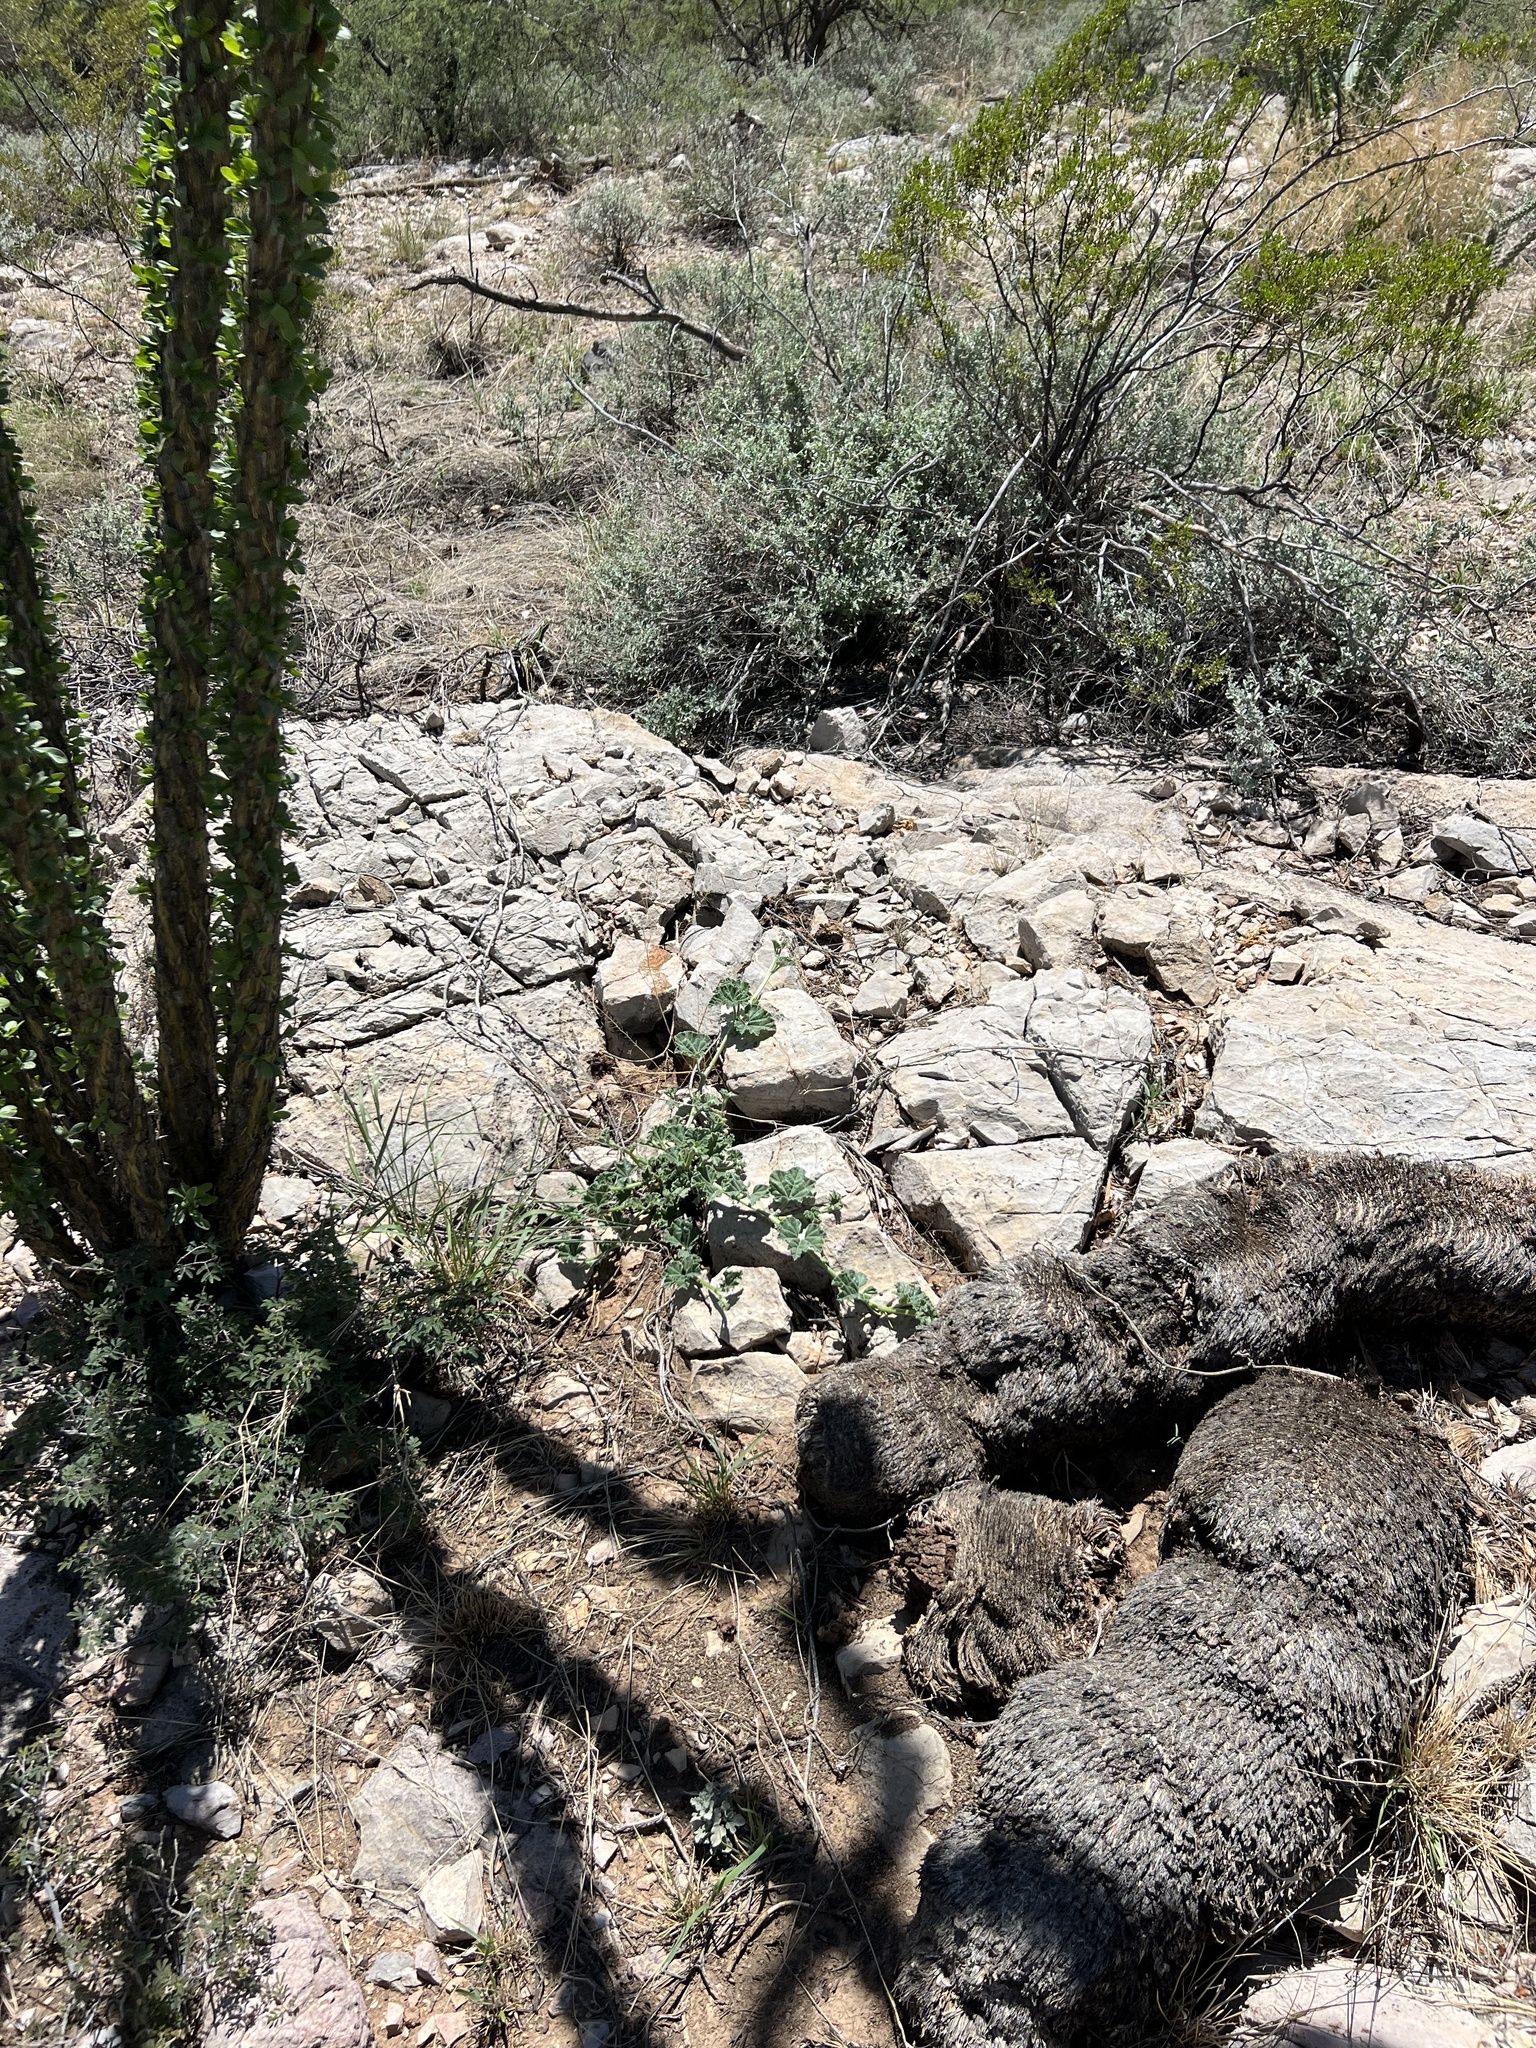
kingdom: Plantae
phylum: Tracheophyta
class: Magnoliopsida
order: Cucurbitales
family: Cucurbitaceae
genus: Apodanthera
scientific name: Apodanthera undulata
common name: Melon-loco
